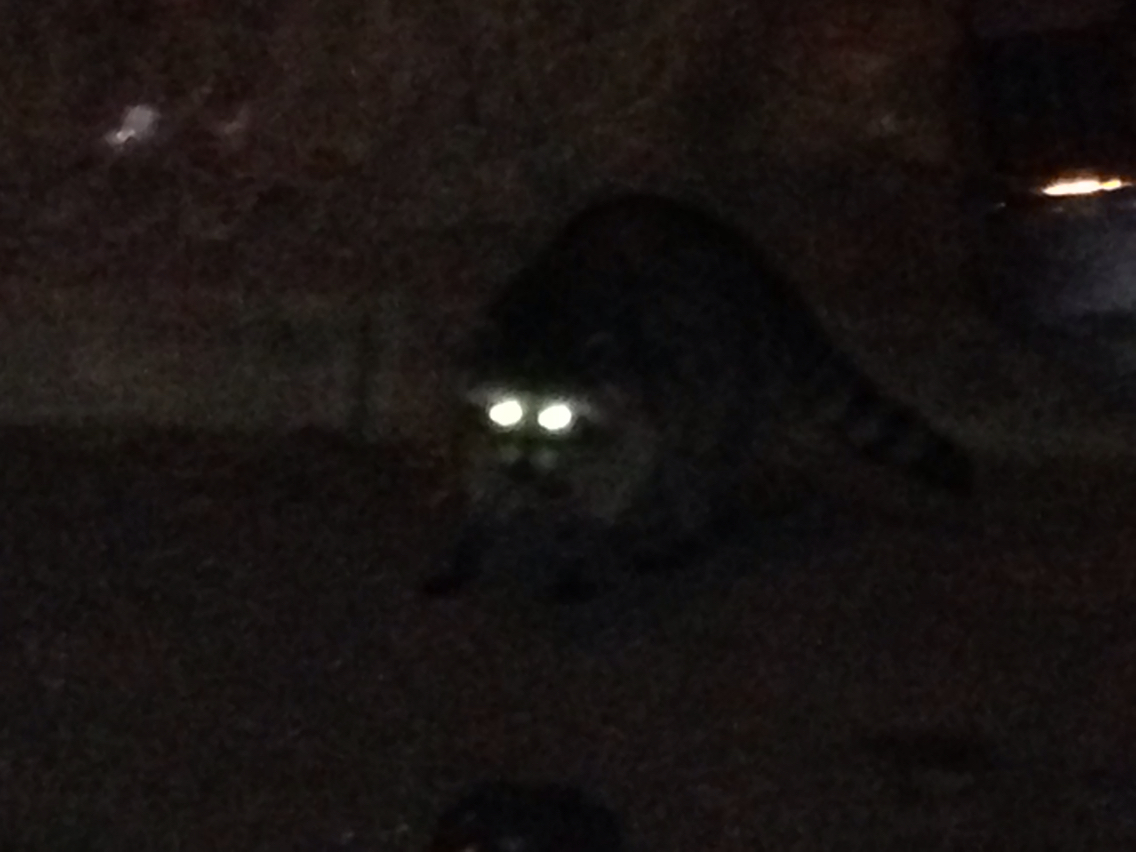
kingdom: Animalia
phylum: Chordata
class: Mammalia
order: Carnivora
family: Procyonidae
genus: Procyon
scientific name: Procyon lotor
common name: Raccoon
